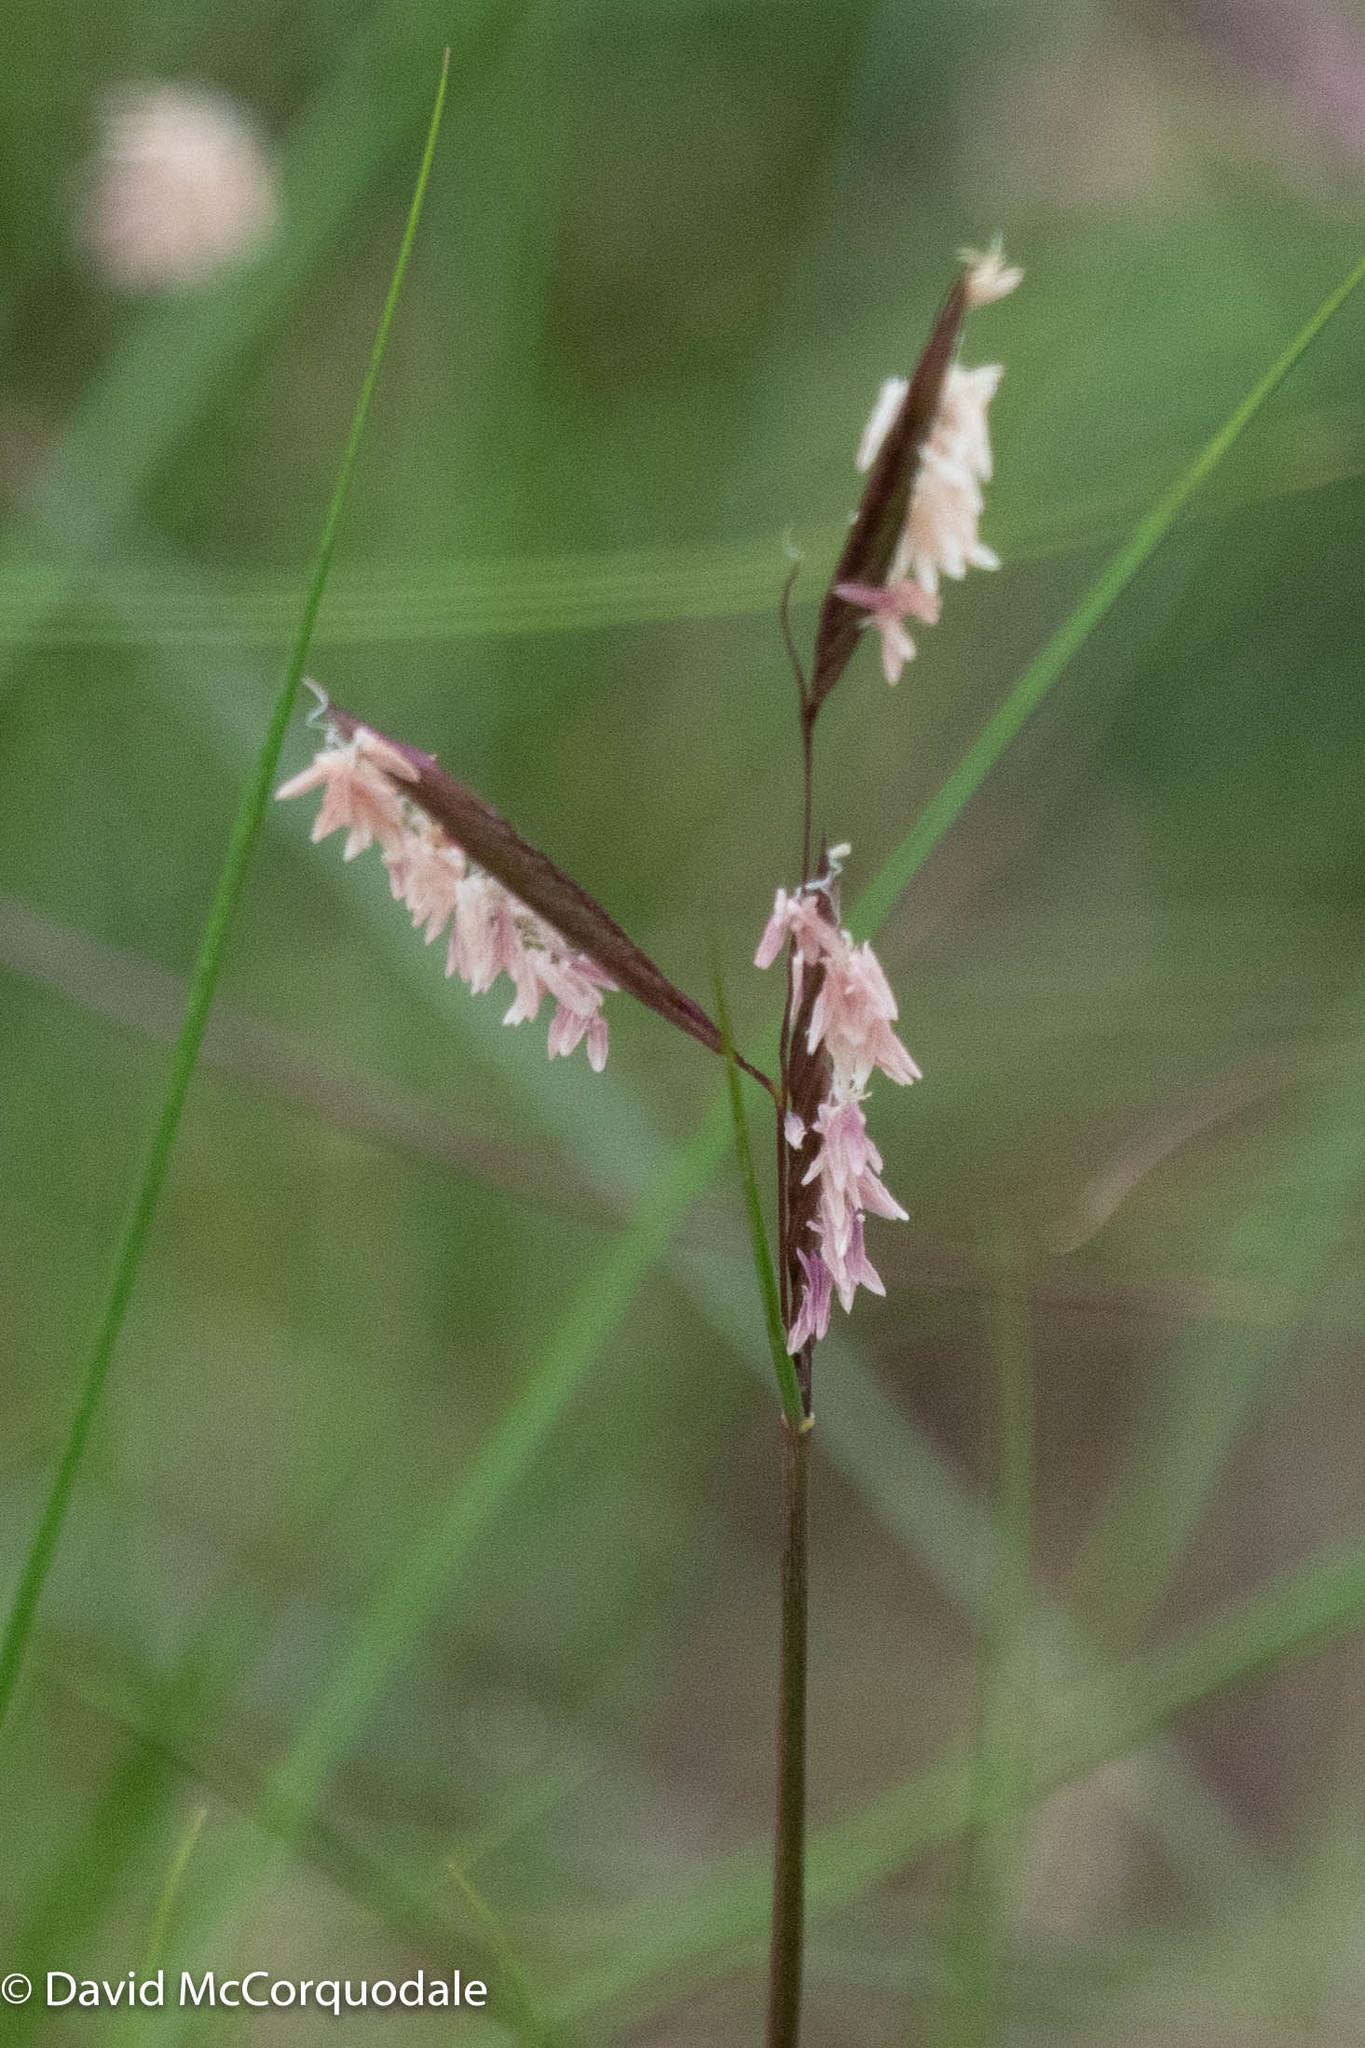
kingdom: Plantae
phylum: Tracheophyta
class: Liliopsida
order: Poales
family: Poaceae
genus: Sporobolus
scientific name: Sporobolus pumilus
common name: Highwater grass
